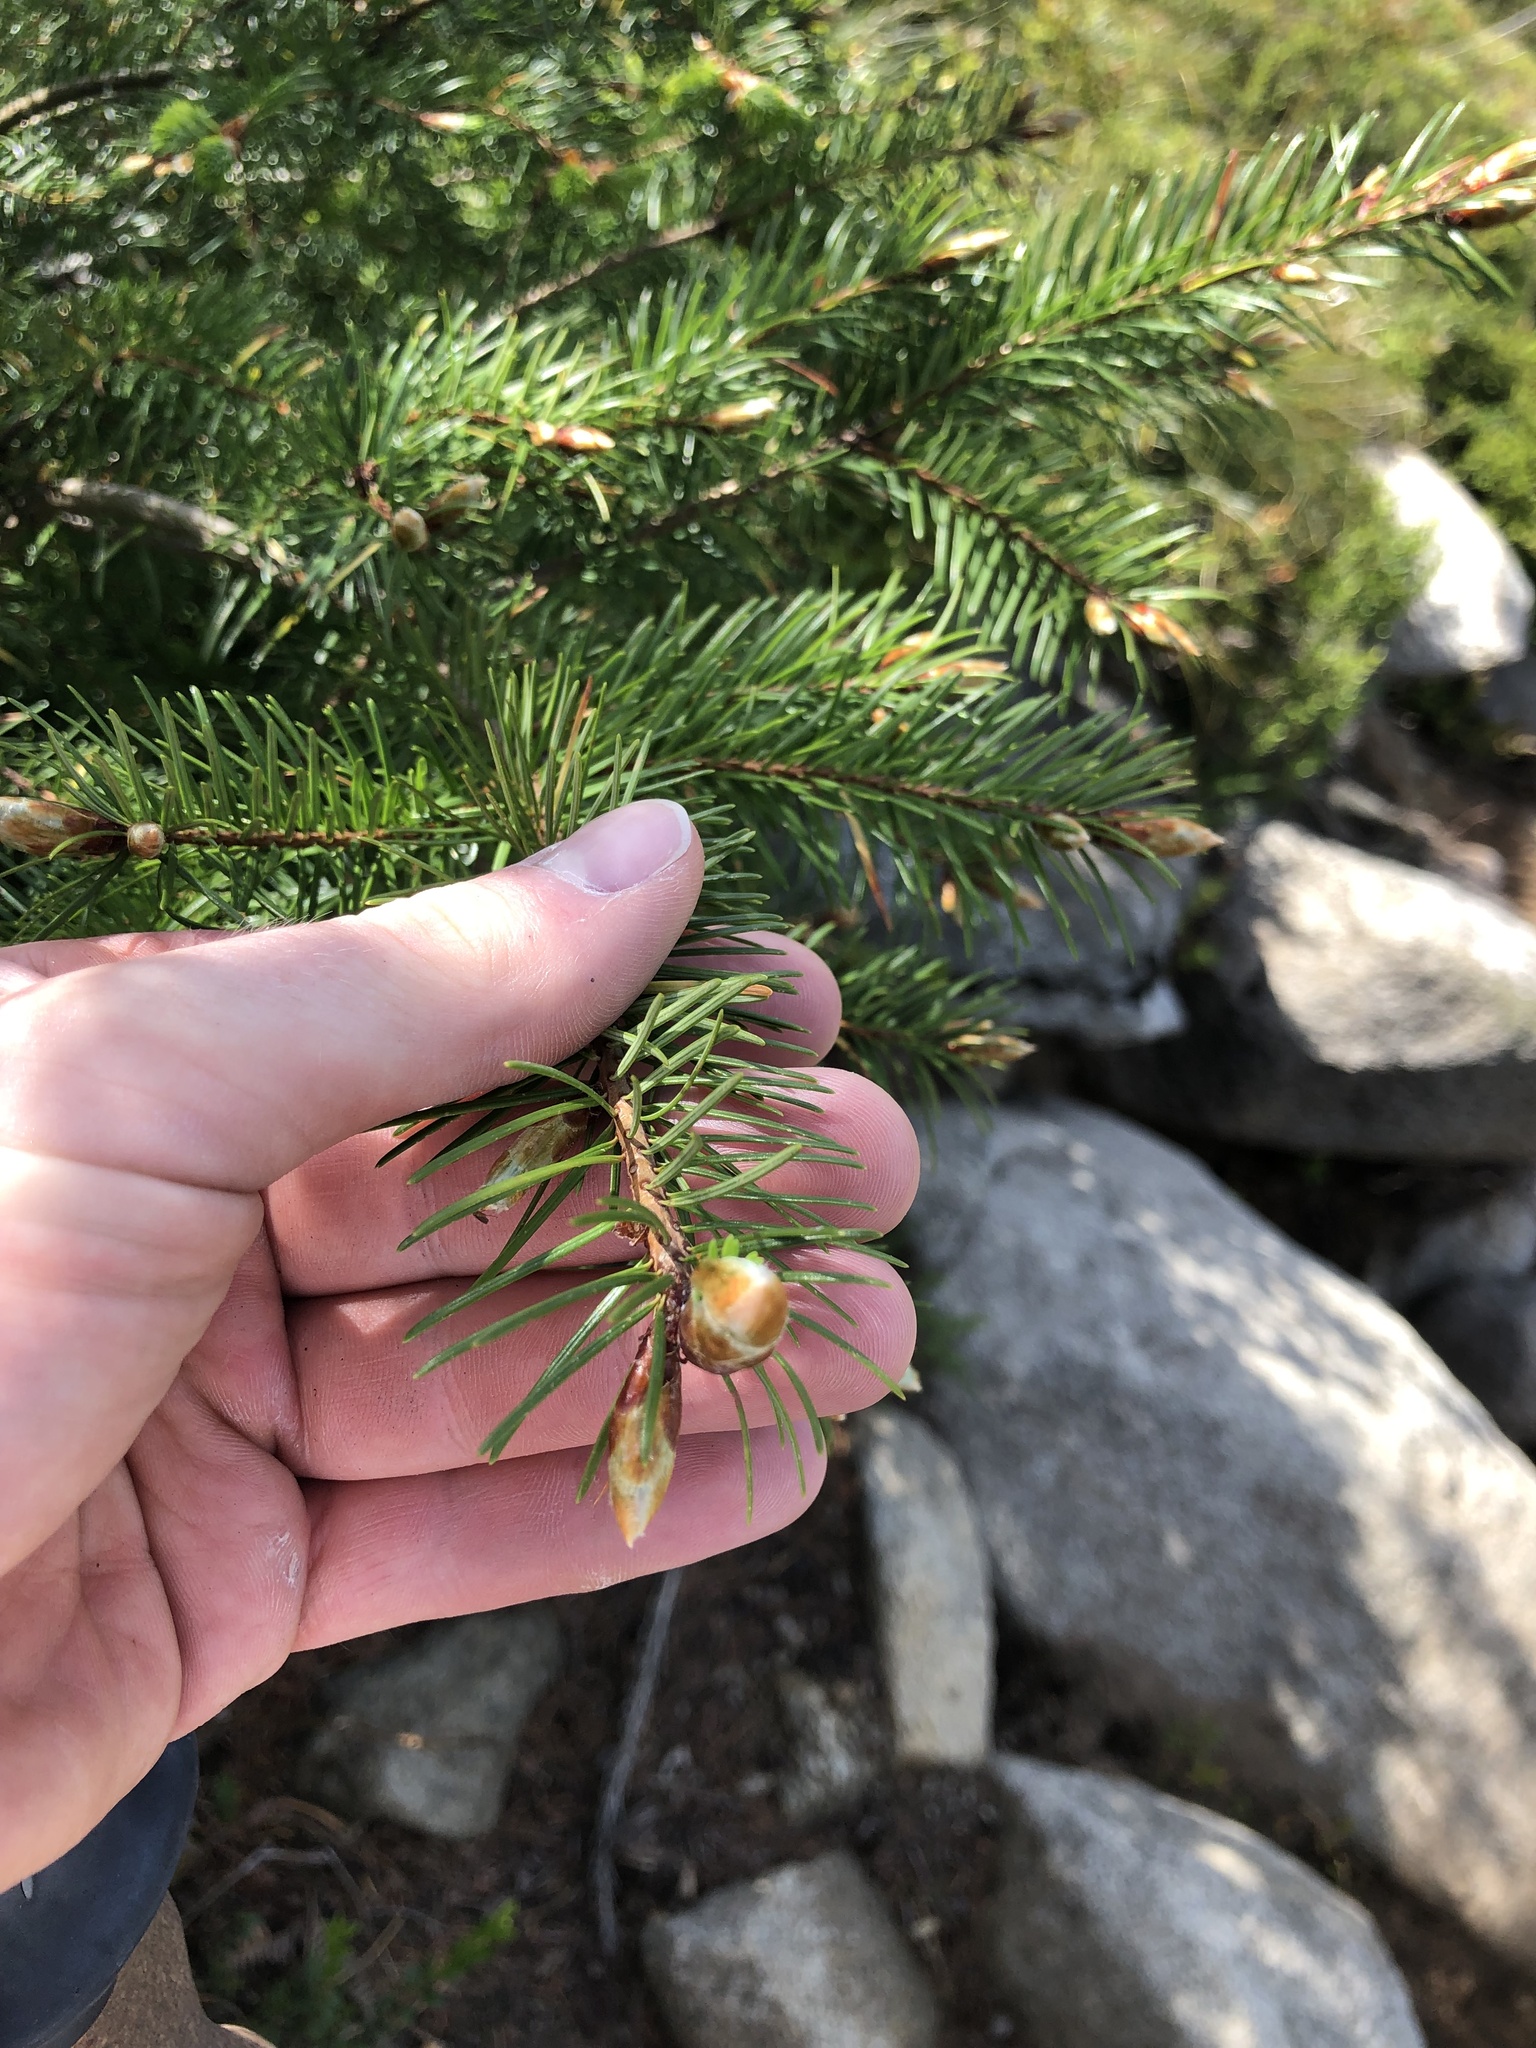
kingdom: Plantae
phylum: Tracheophyta
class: Pinopsida
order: Pinales
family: Pinaceae
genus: Pseudotsuga
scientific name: Pseudotsuga menziesii
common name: Douglas fir
